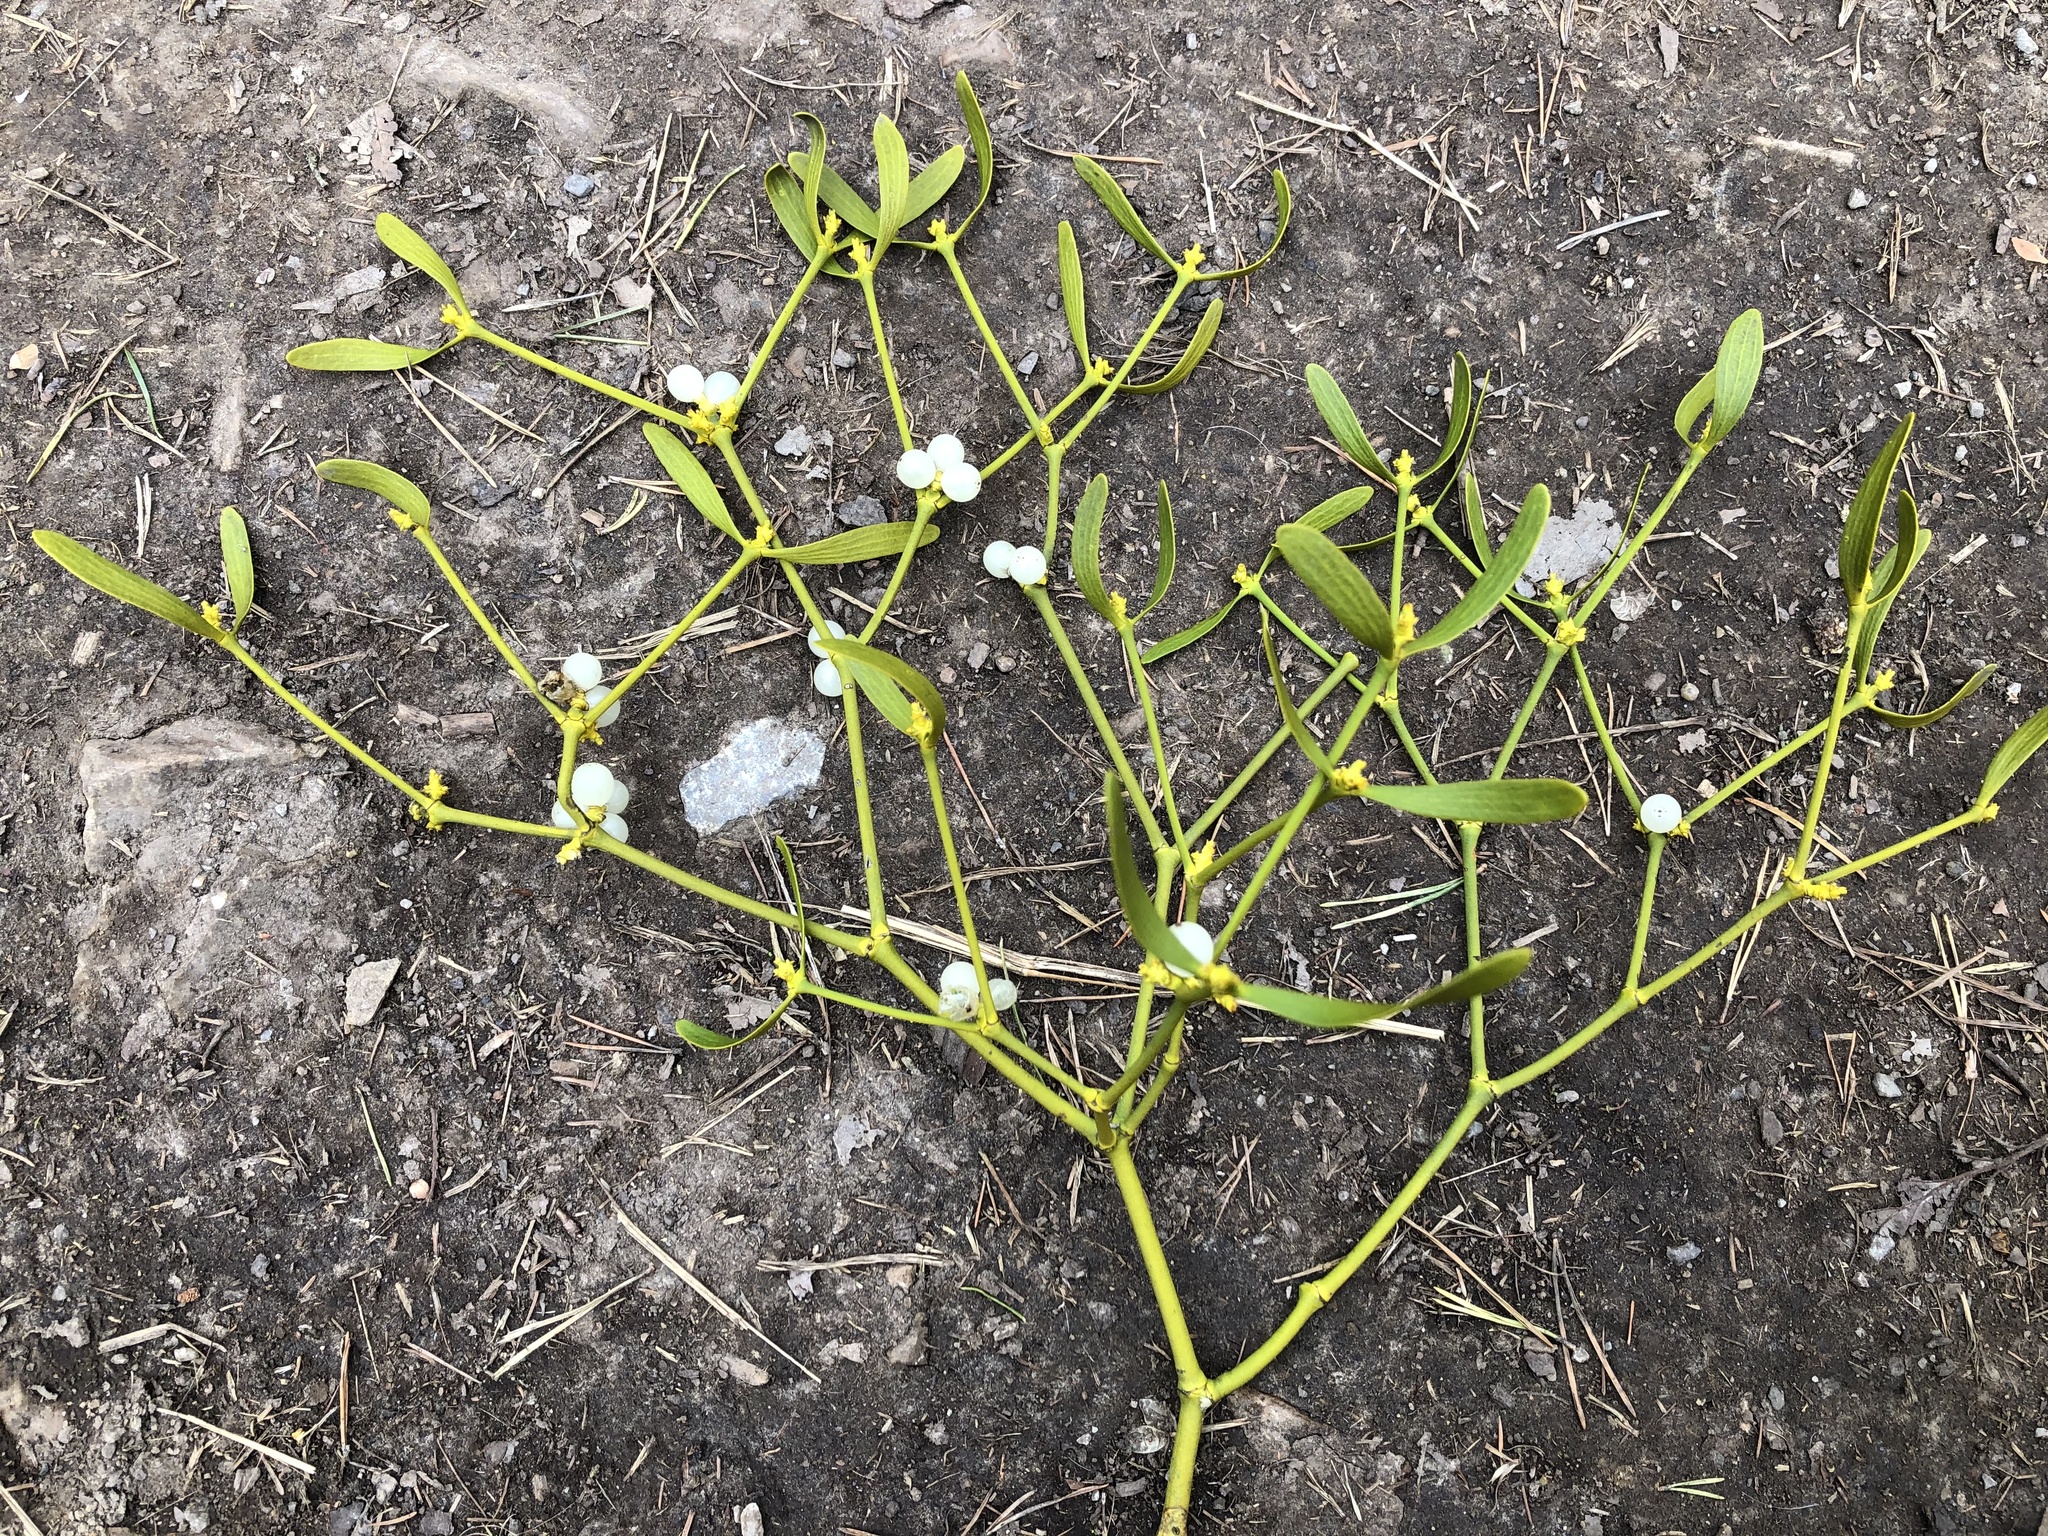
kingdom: Plantae
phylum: Tracheophyta
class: Magnoliopsida
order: Santalales
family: Viscaceae
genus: Viscum
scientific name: Viscum album
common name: Mistletoe
